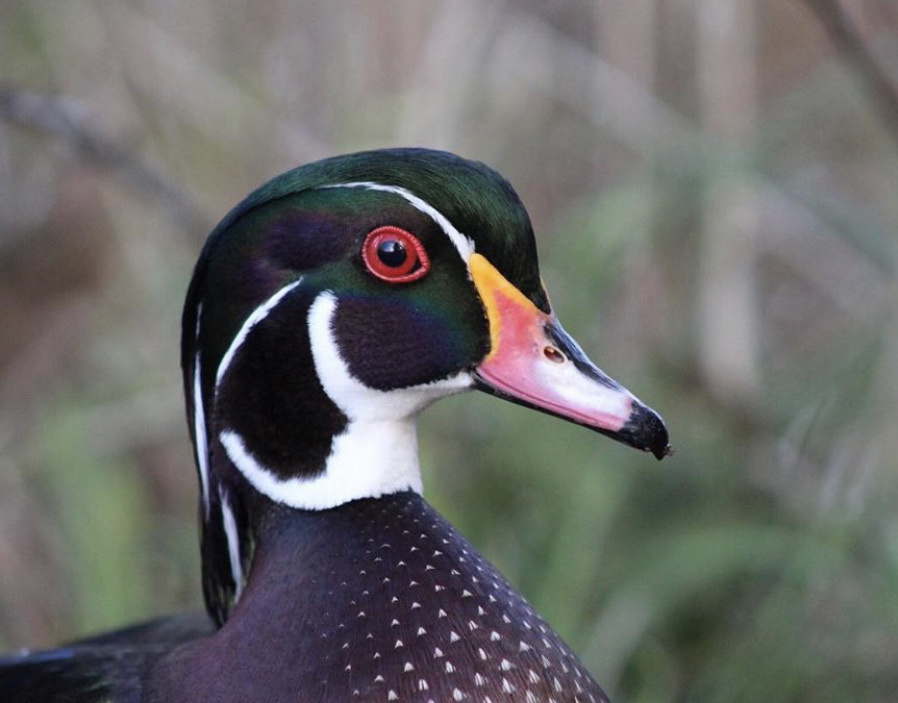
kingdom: Animalia
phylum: Chordata
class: Aves
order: Anseriformes
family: Anatidae
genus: Aix
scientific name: Aix sponsa
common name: Wood duck
